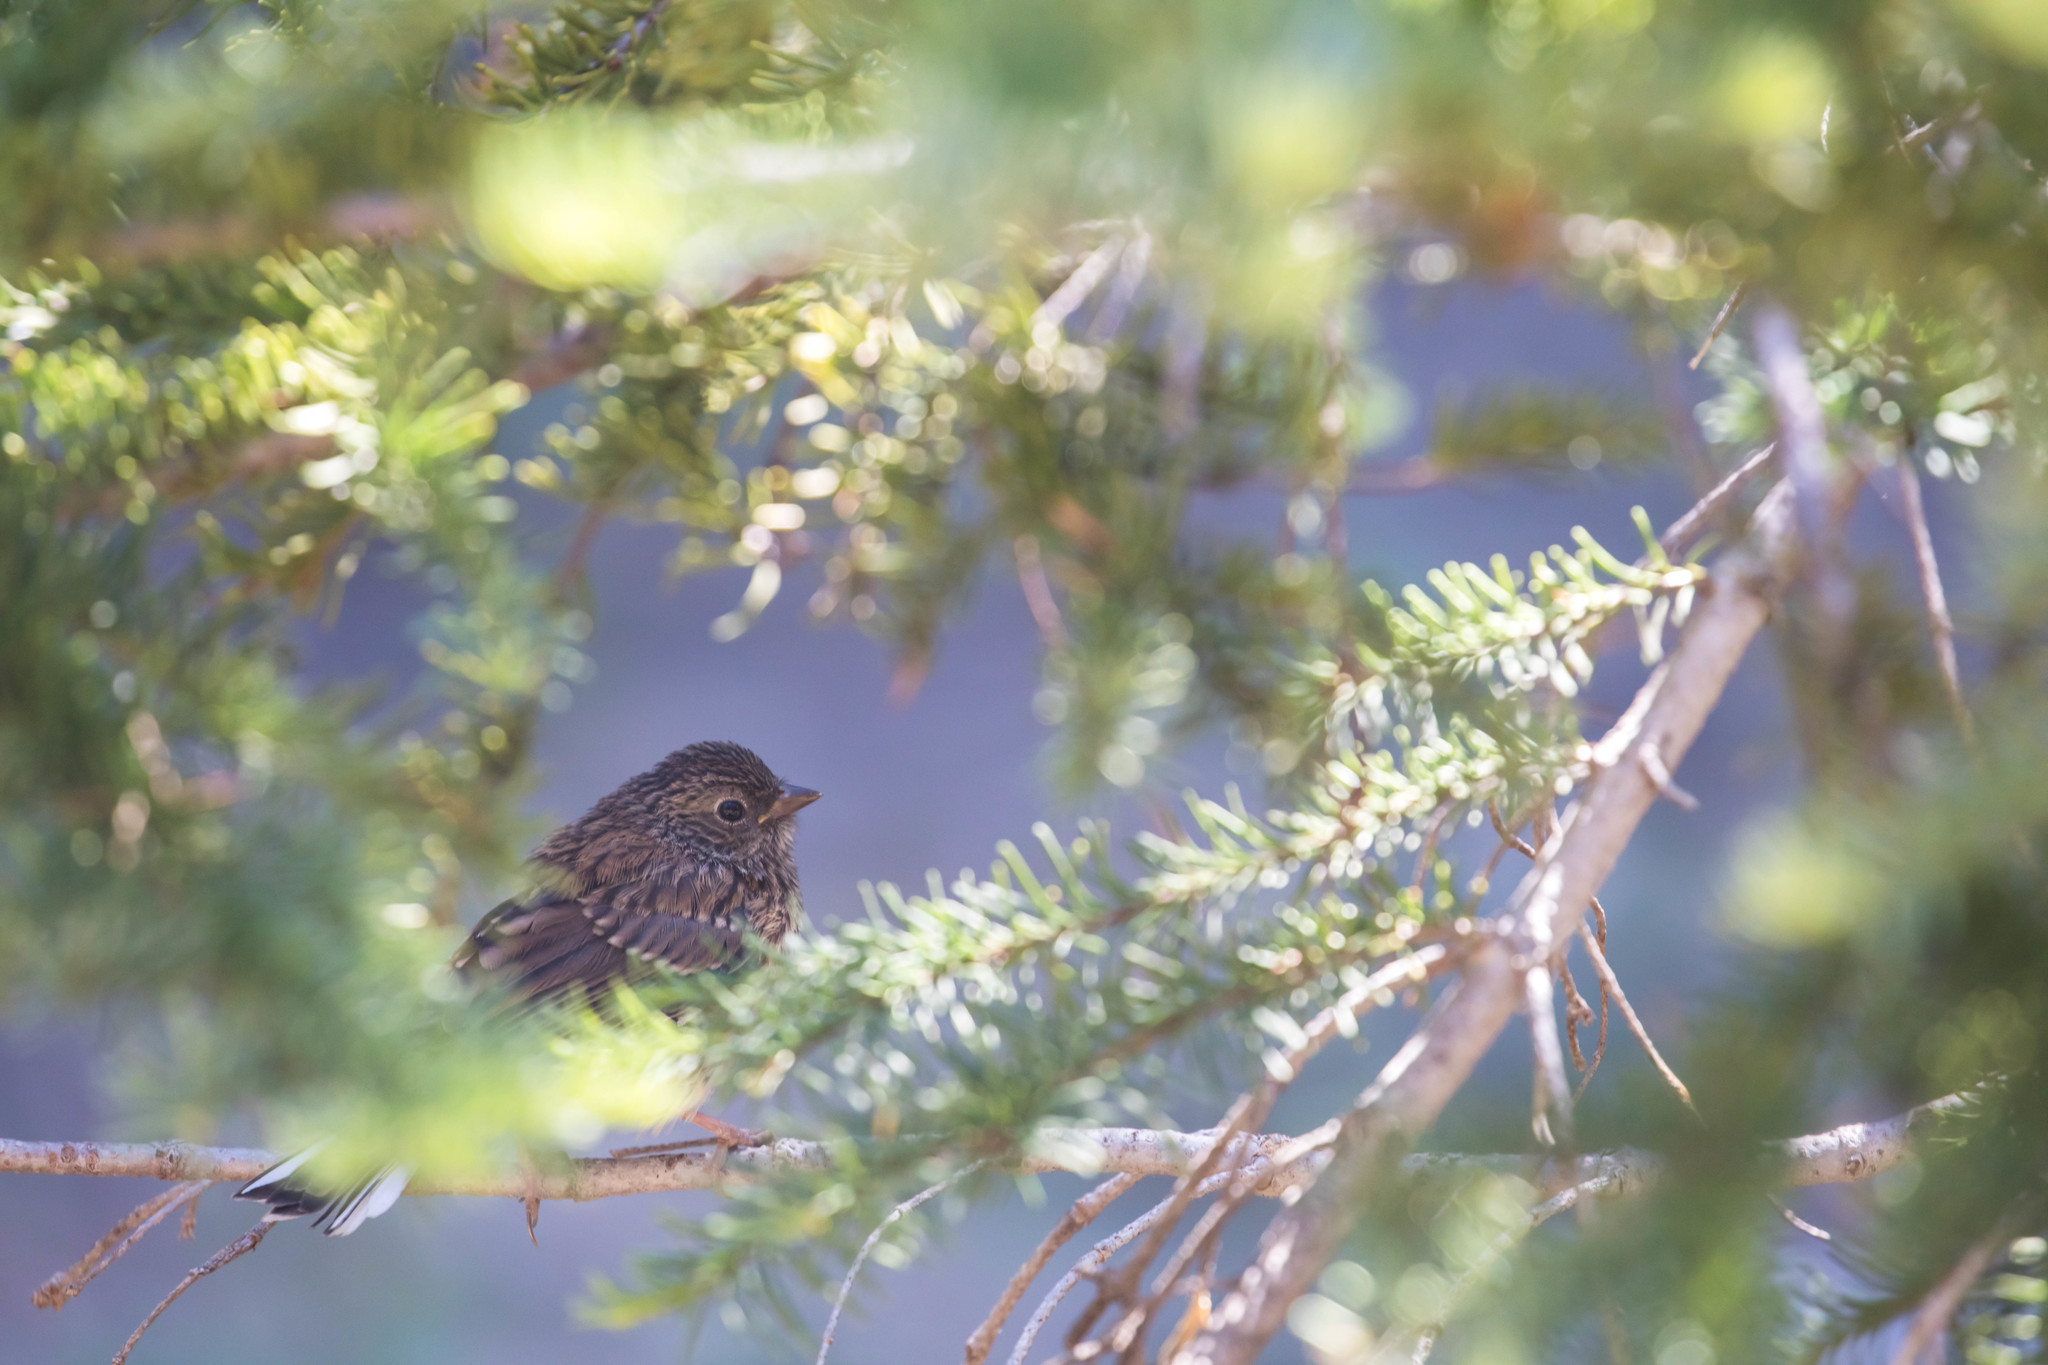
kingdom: Animalia
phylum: Chordata
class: Aves
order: Passeriformes
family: Passerellidae
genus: Junco
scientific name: Junco hyemalis
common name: Dark-eyed junco
